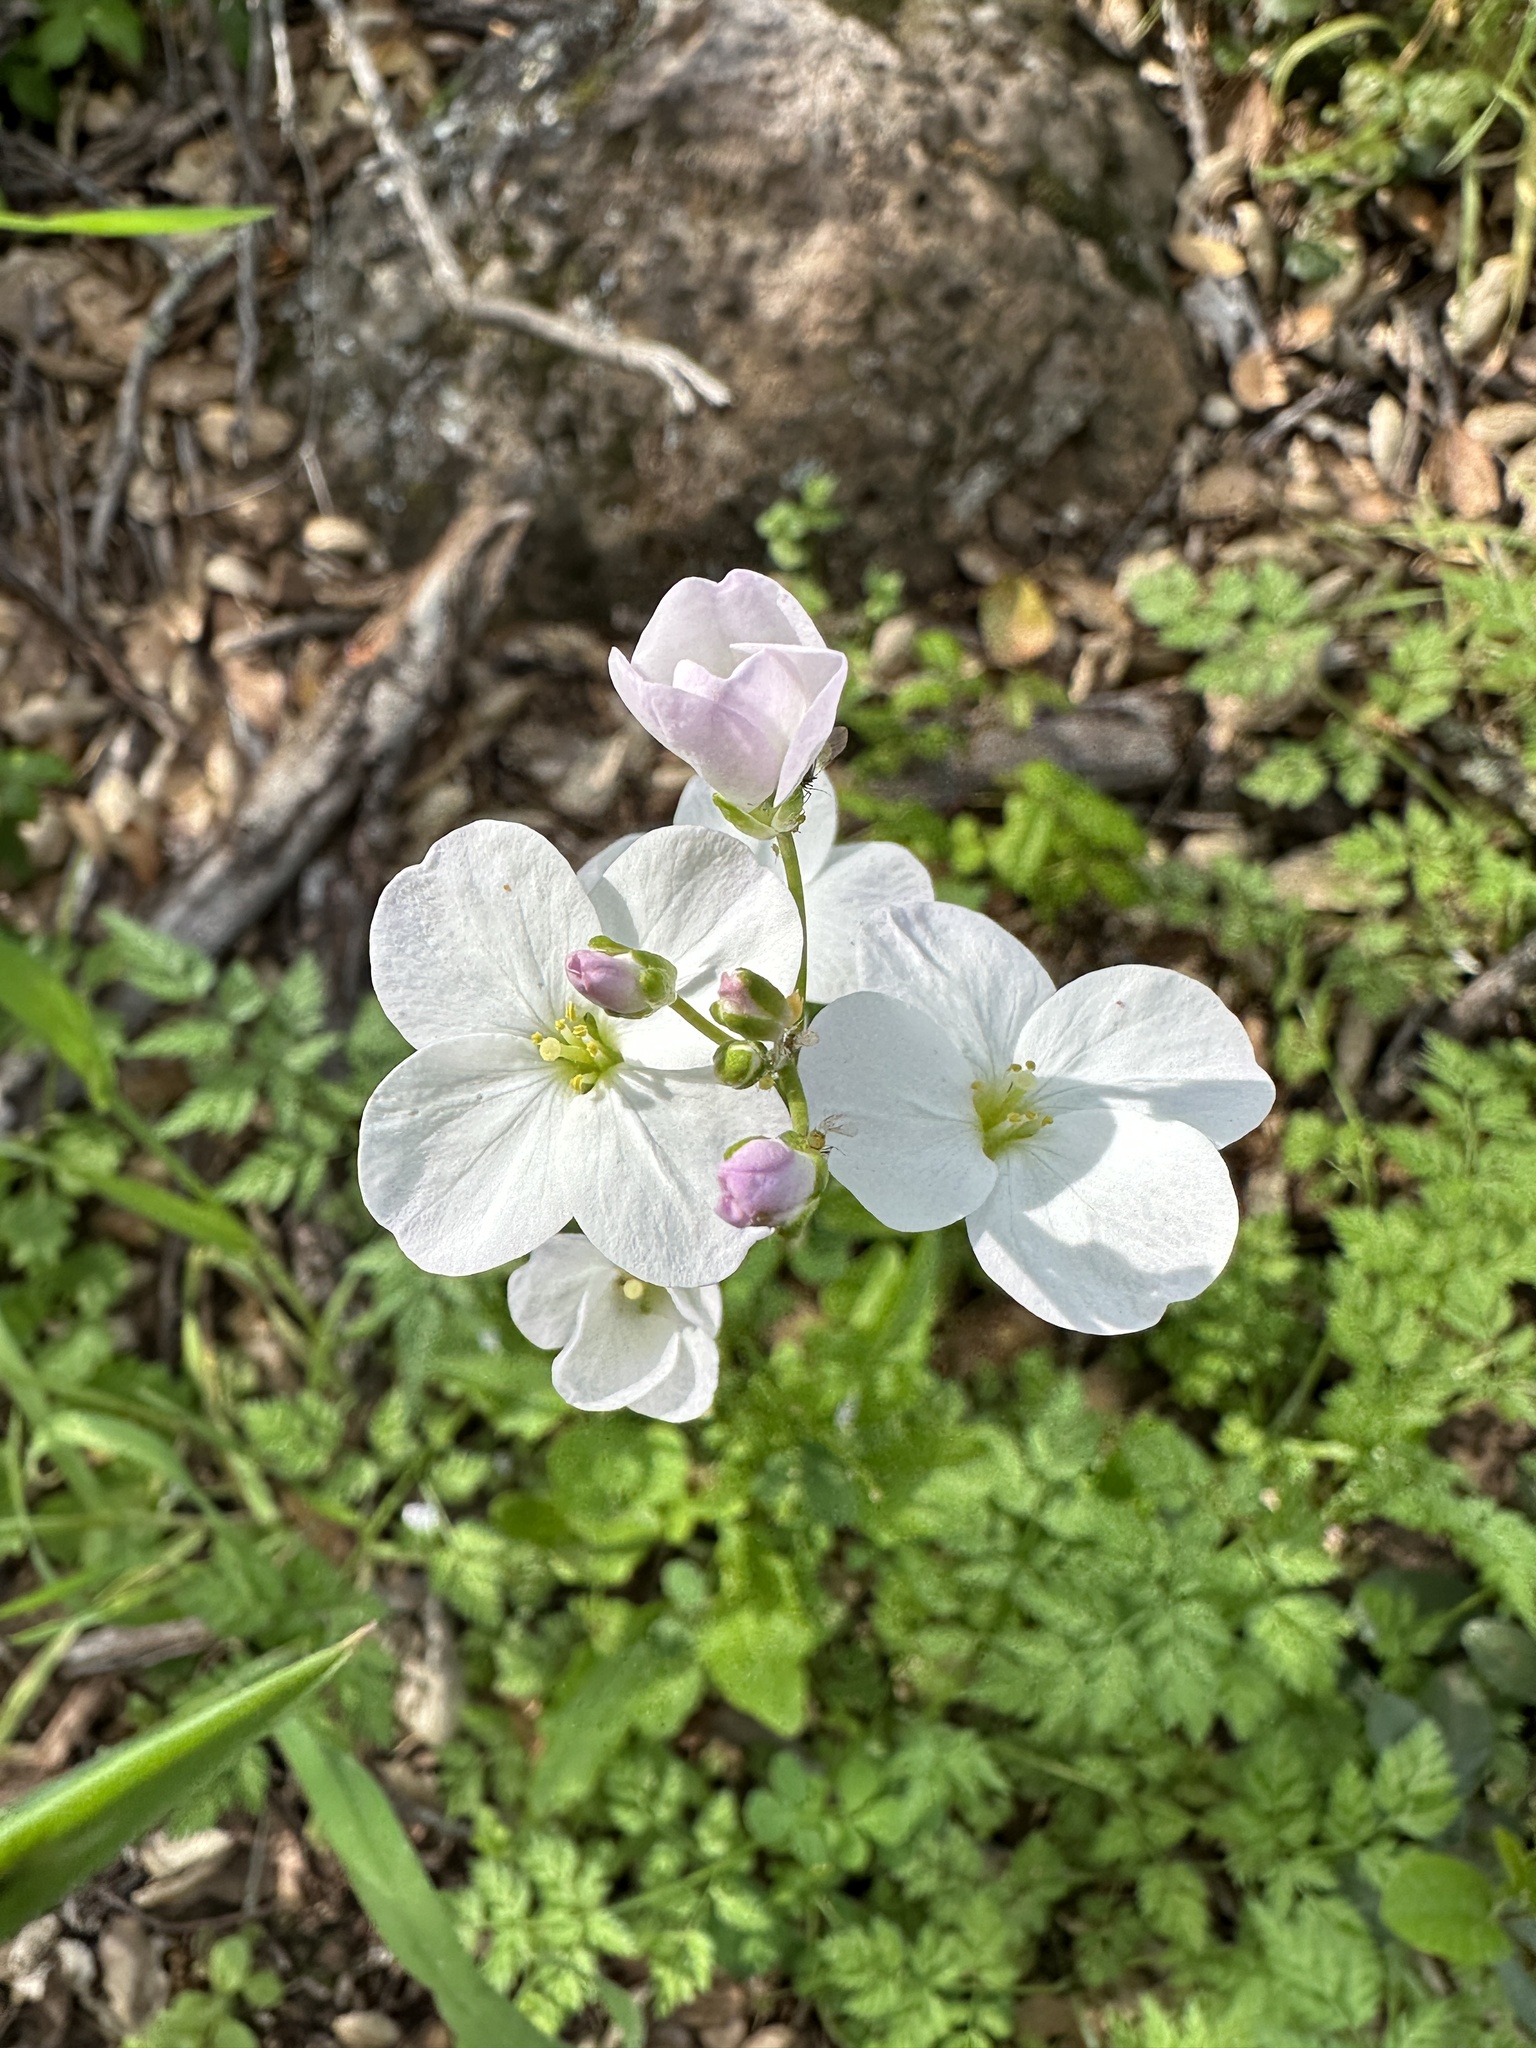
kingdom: Plantae
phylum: Tracheophyta
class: Magnoliopsida
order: Brassicales
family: Brassicaceae
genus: Cardamine
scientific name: Cardamine californica
